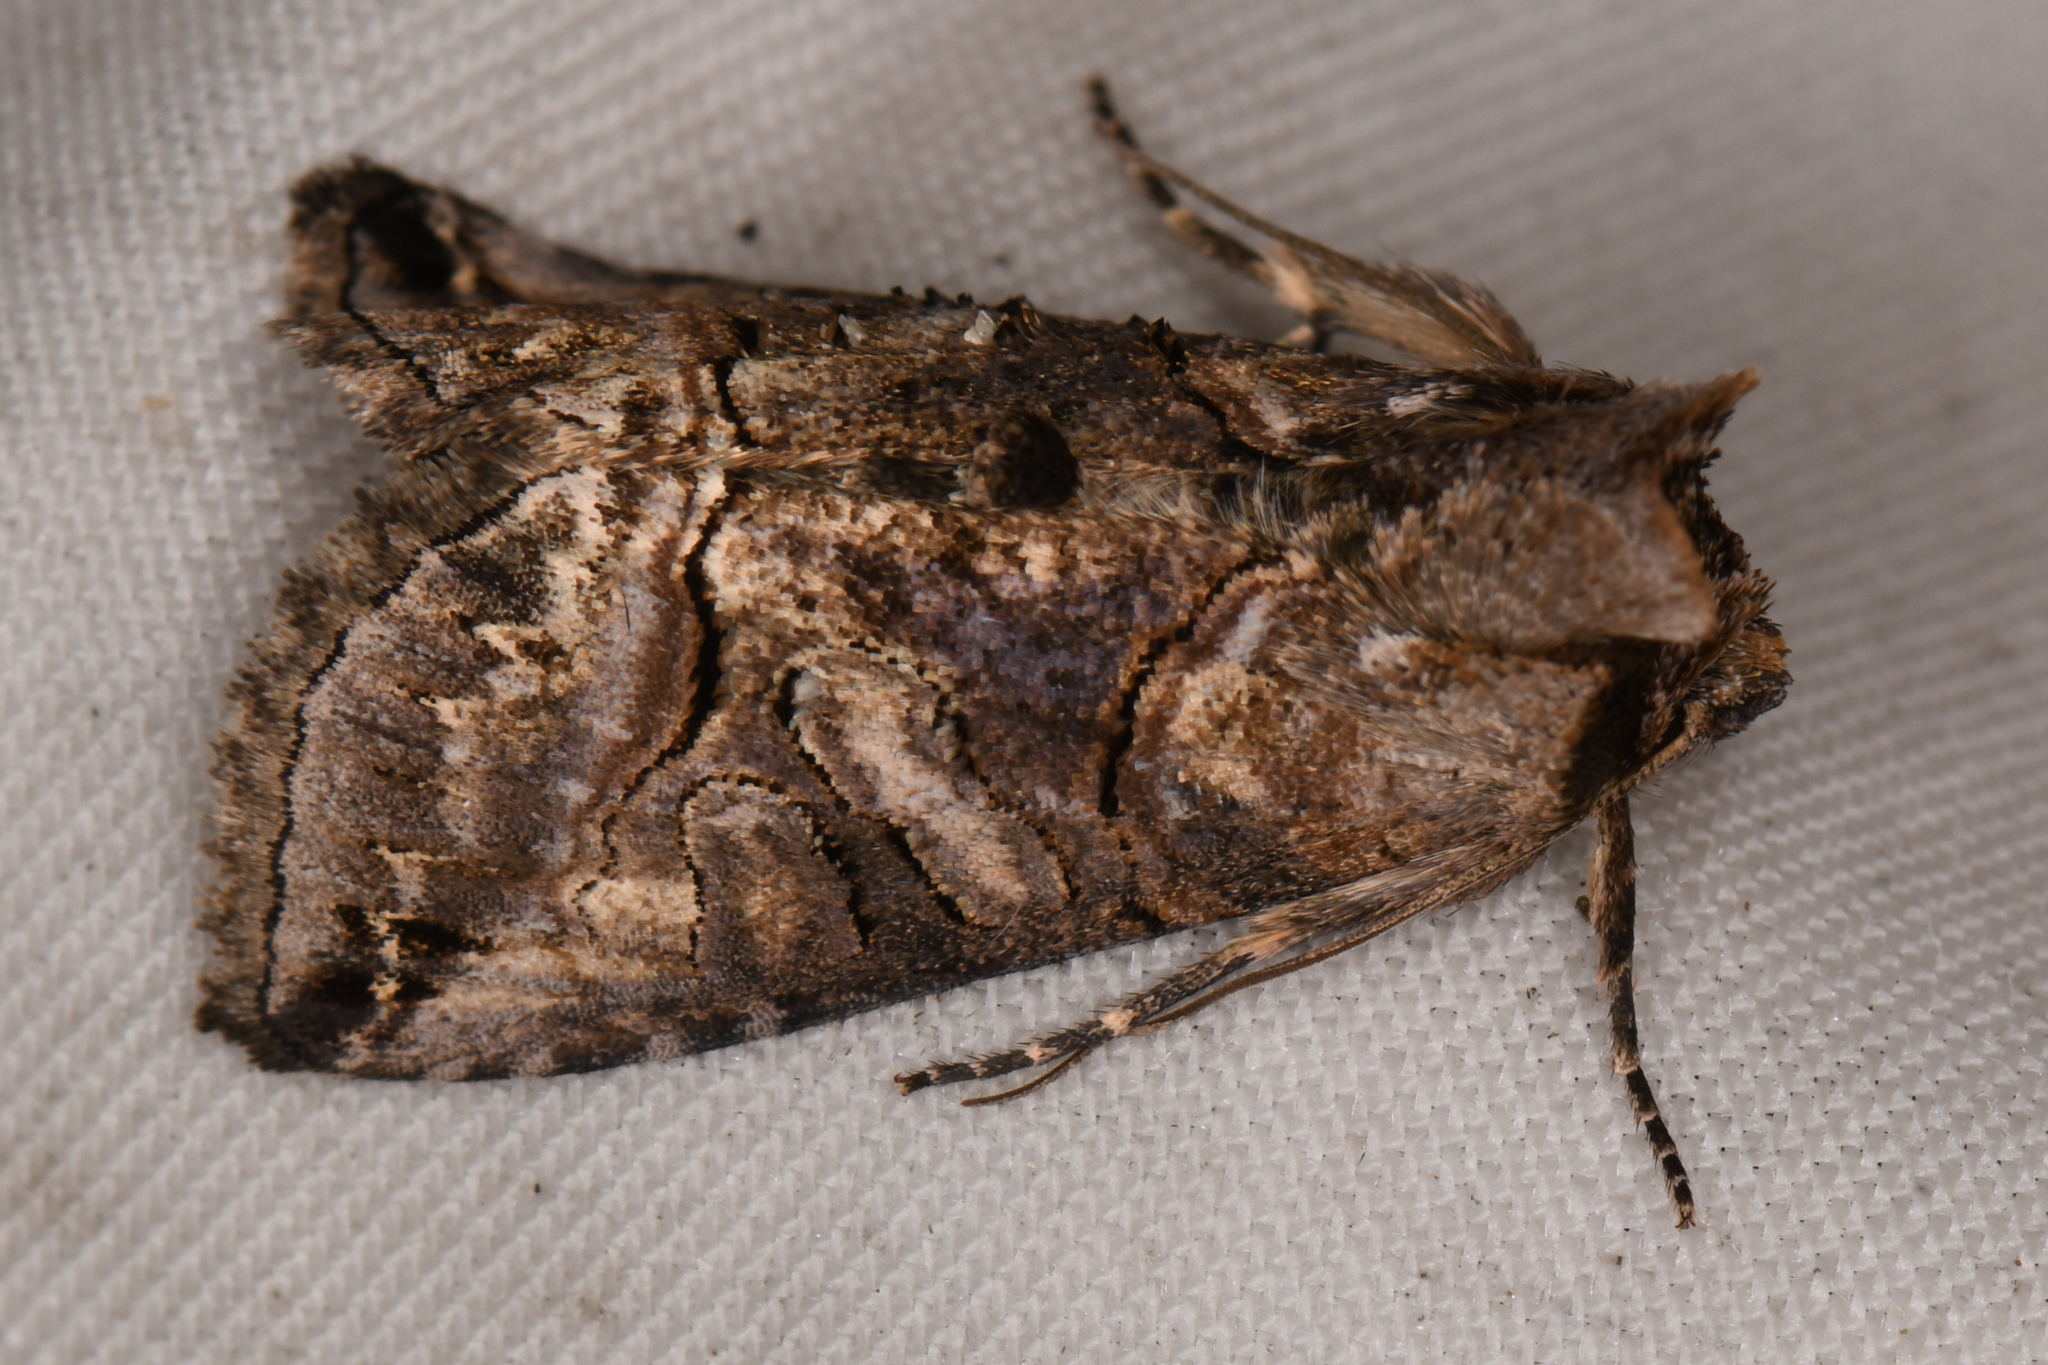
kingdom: Animalia
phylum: Arthropoda
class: Insecta
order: Lepidoptera
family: Noctuidae
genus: Abrostola
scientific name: Abrostola urentis
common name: Spectacled nettle moth
